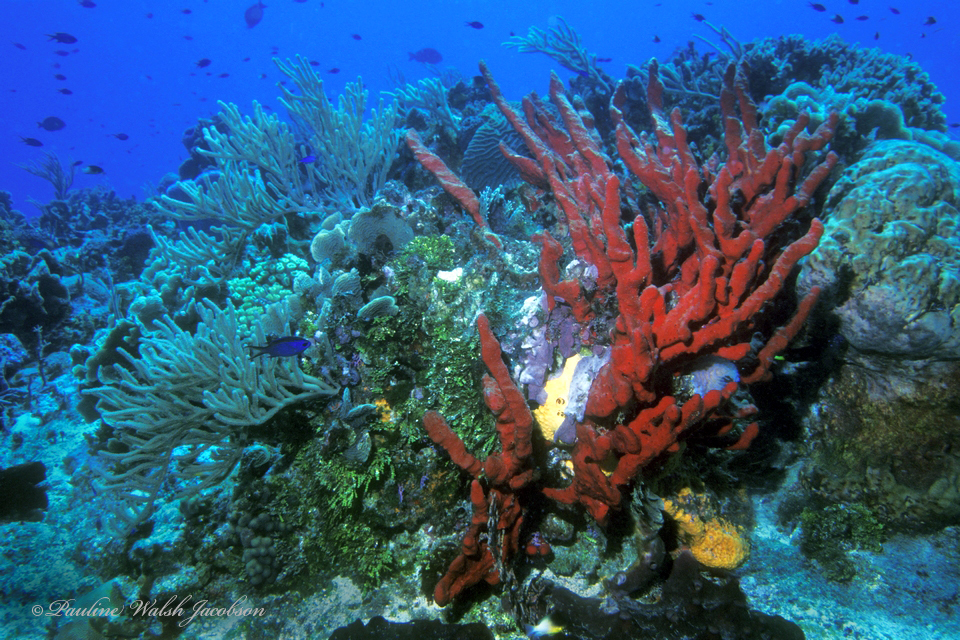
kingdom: Animalia
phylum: Porifera
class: Demospongiae
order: Haplosclerida
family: Niphatidae
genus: Amphimedon
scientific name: Amphimedon compressa
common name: Red sponge
